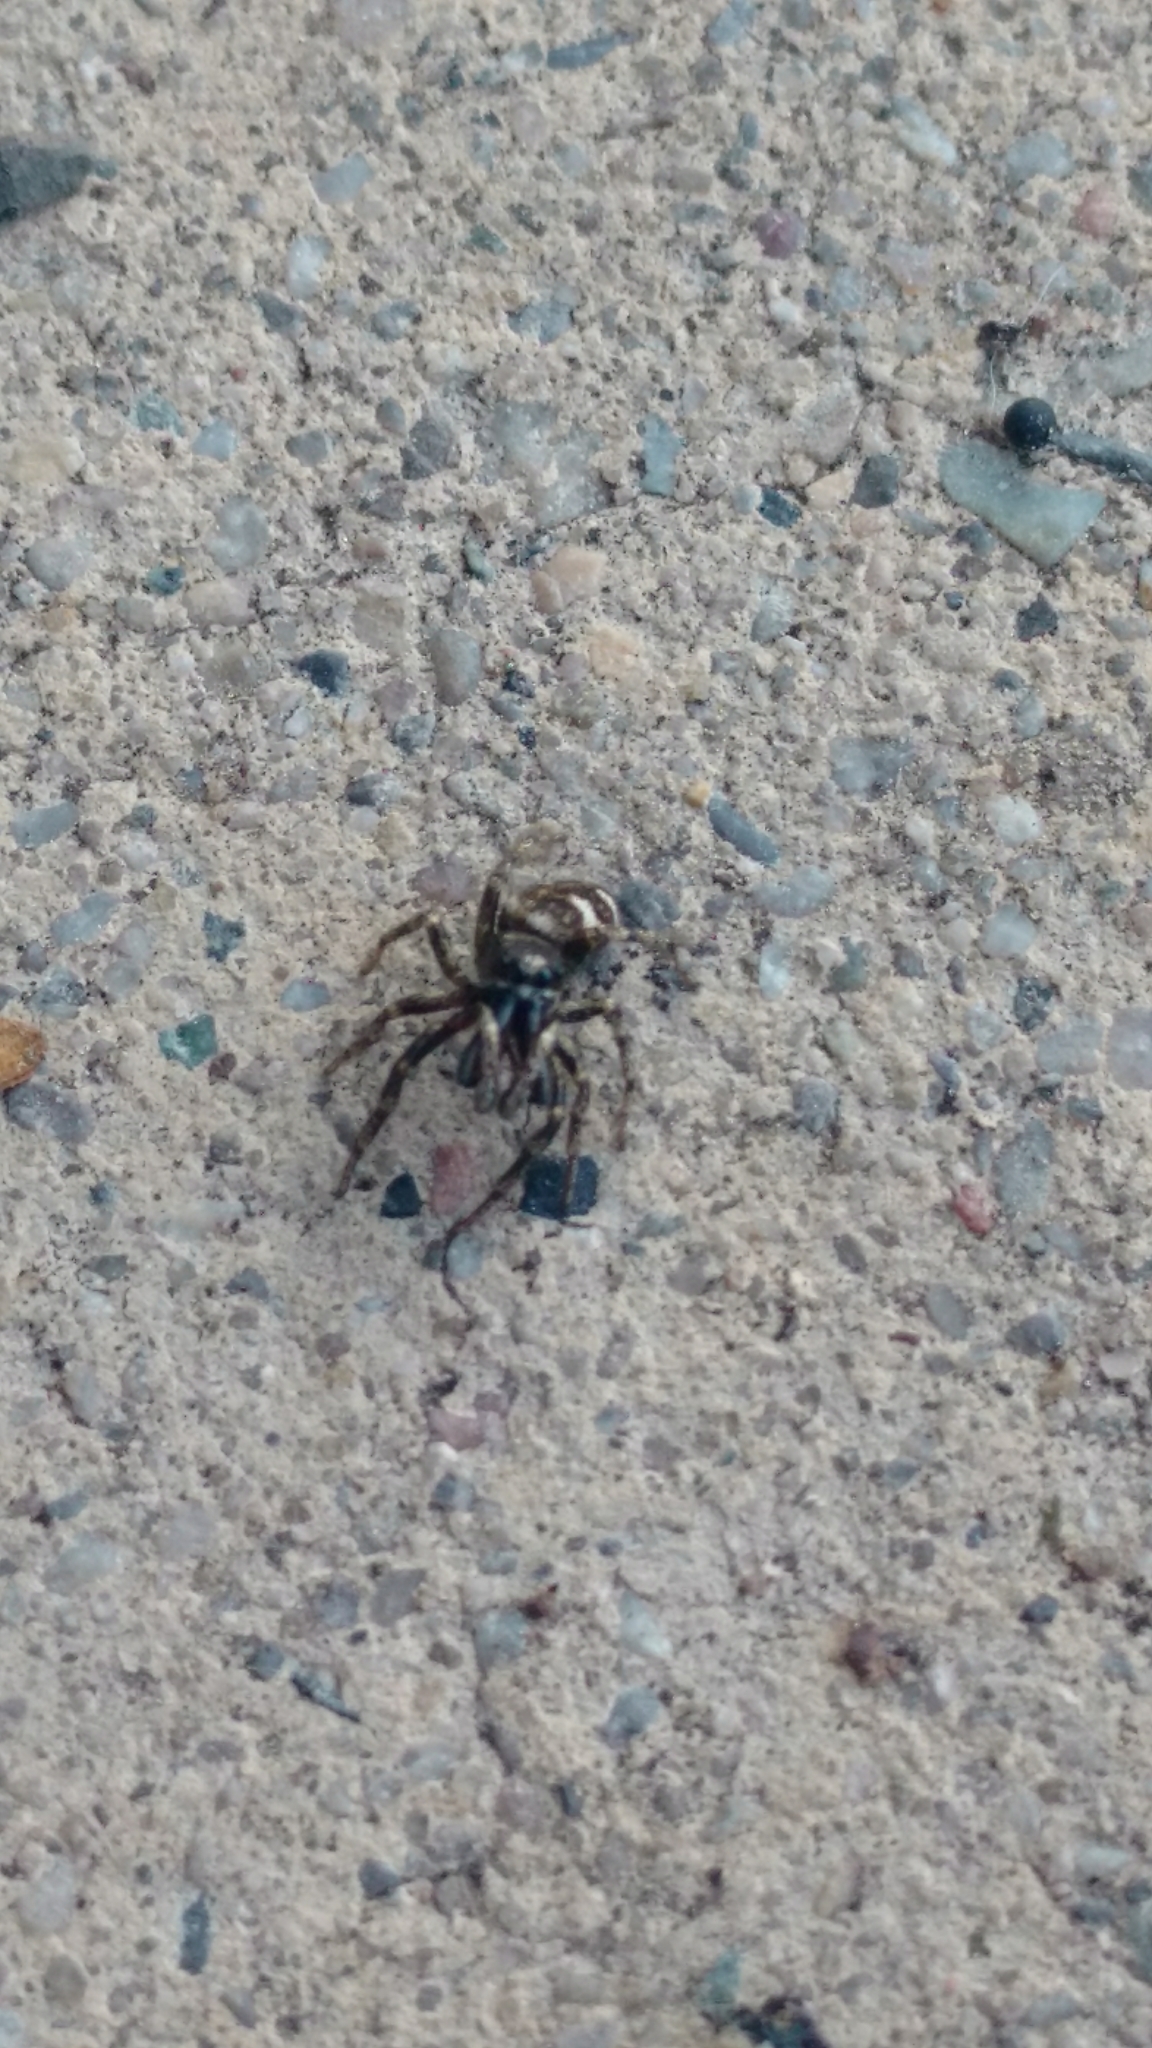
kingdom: Animalia
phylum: Arthropoda
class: Arachnida
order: Araneae
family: Salticidae
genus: Salticus
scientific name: Salticus scenicus
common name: Zebra jumper
